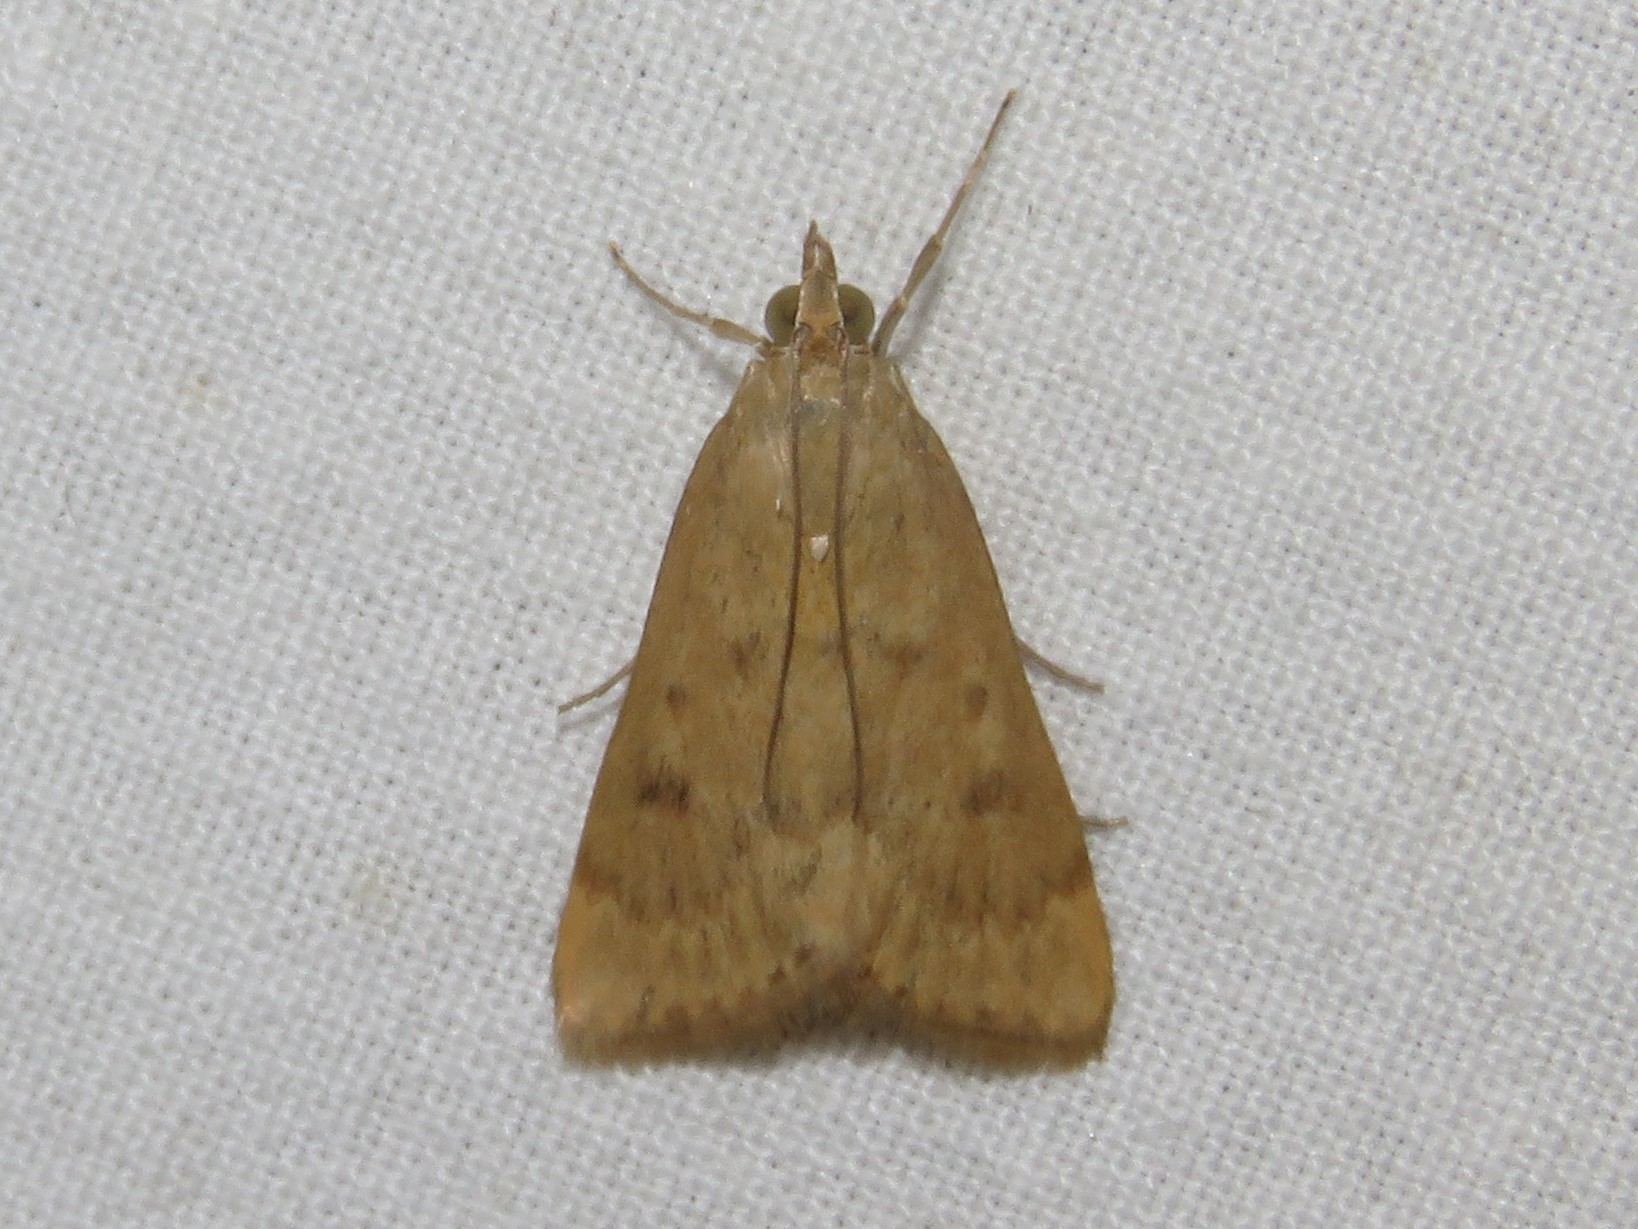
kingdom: Animalia
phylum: Arthropoda
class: Insecta
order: Lepidoptera
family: Crambidae
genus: Achyra
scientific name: Achyra rantalis
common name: Garden webworm
